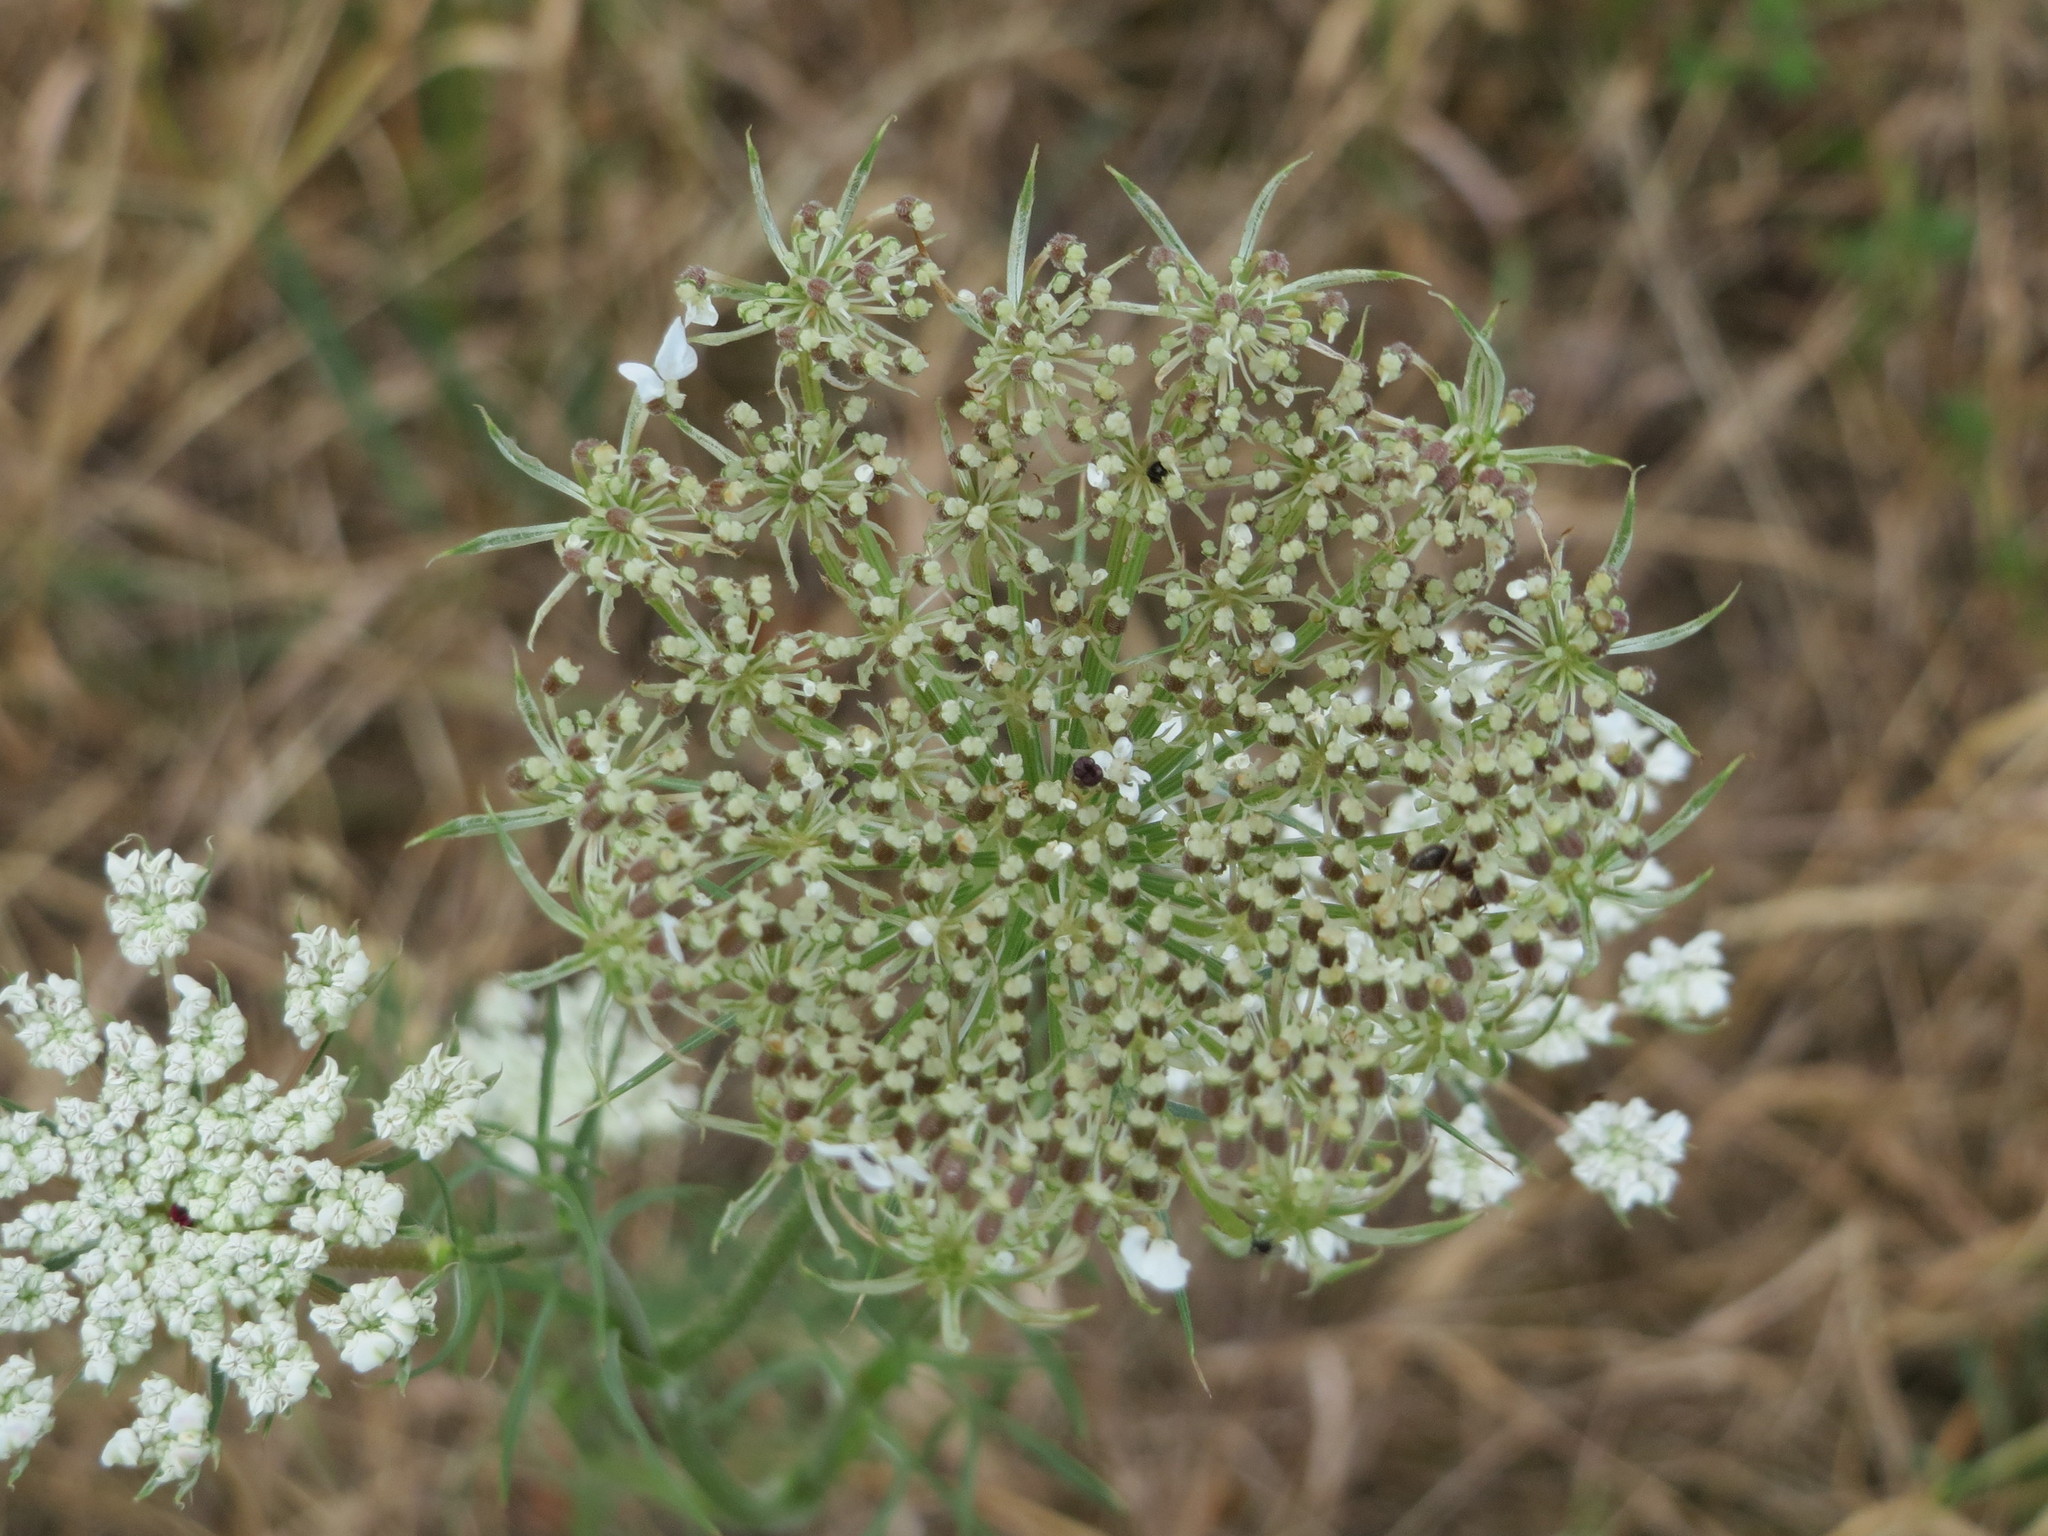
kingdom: Plantae
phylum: Tracheophyta
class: Magnoliopsida
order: Apiales
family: Apiaceae
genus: Daucus
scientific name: Daucus carota
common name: Wild carrot
